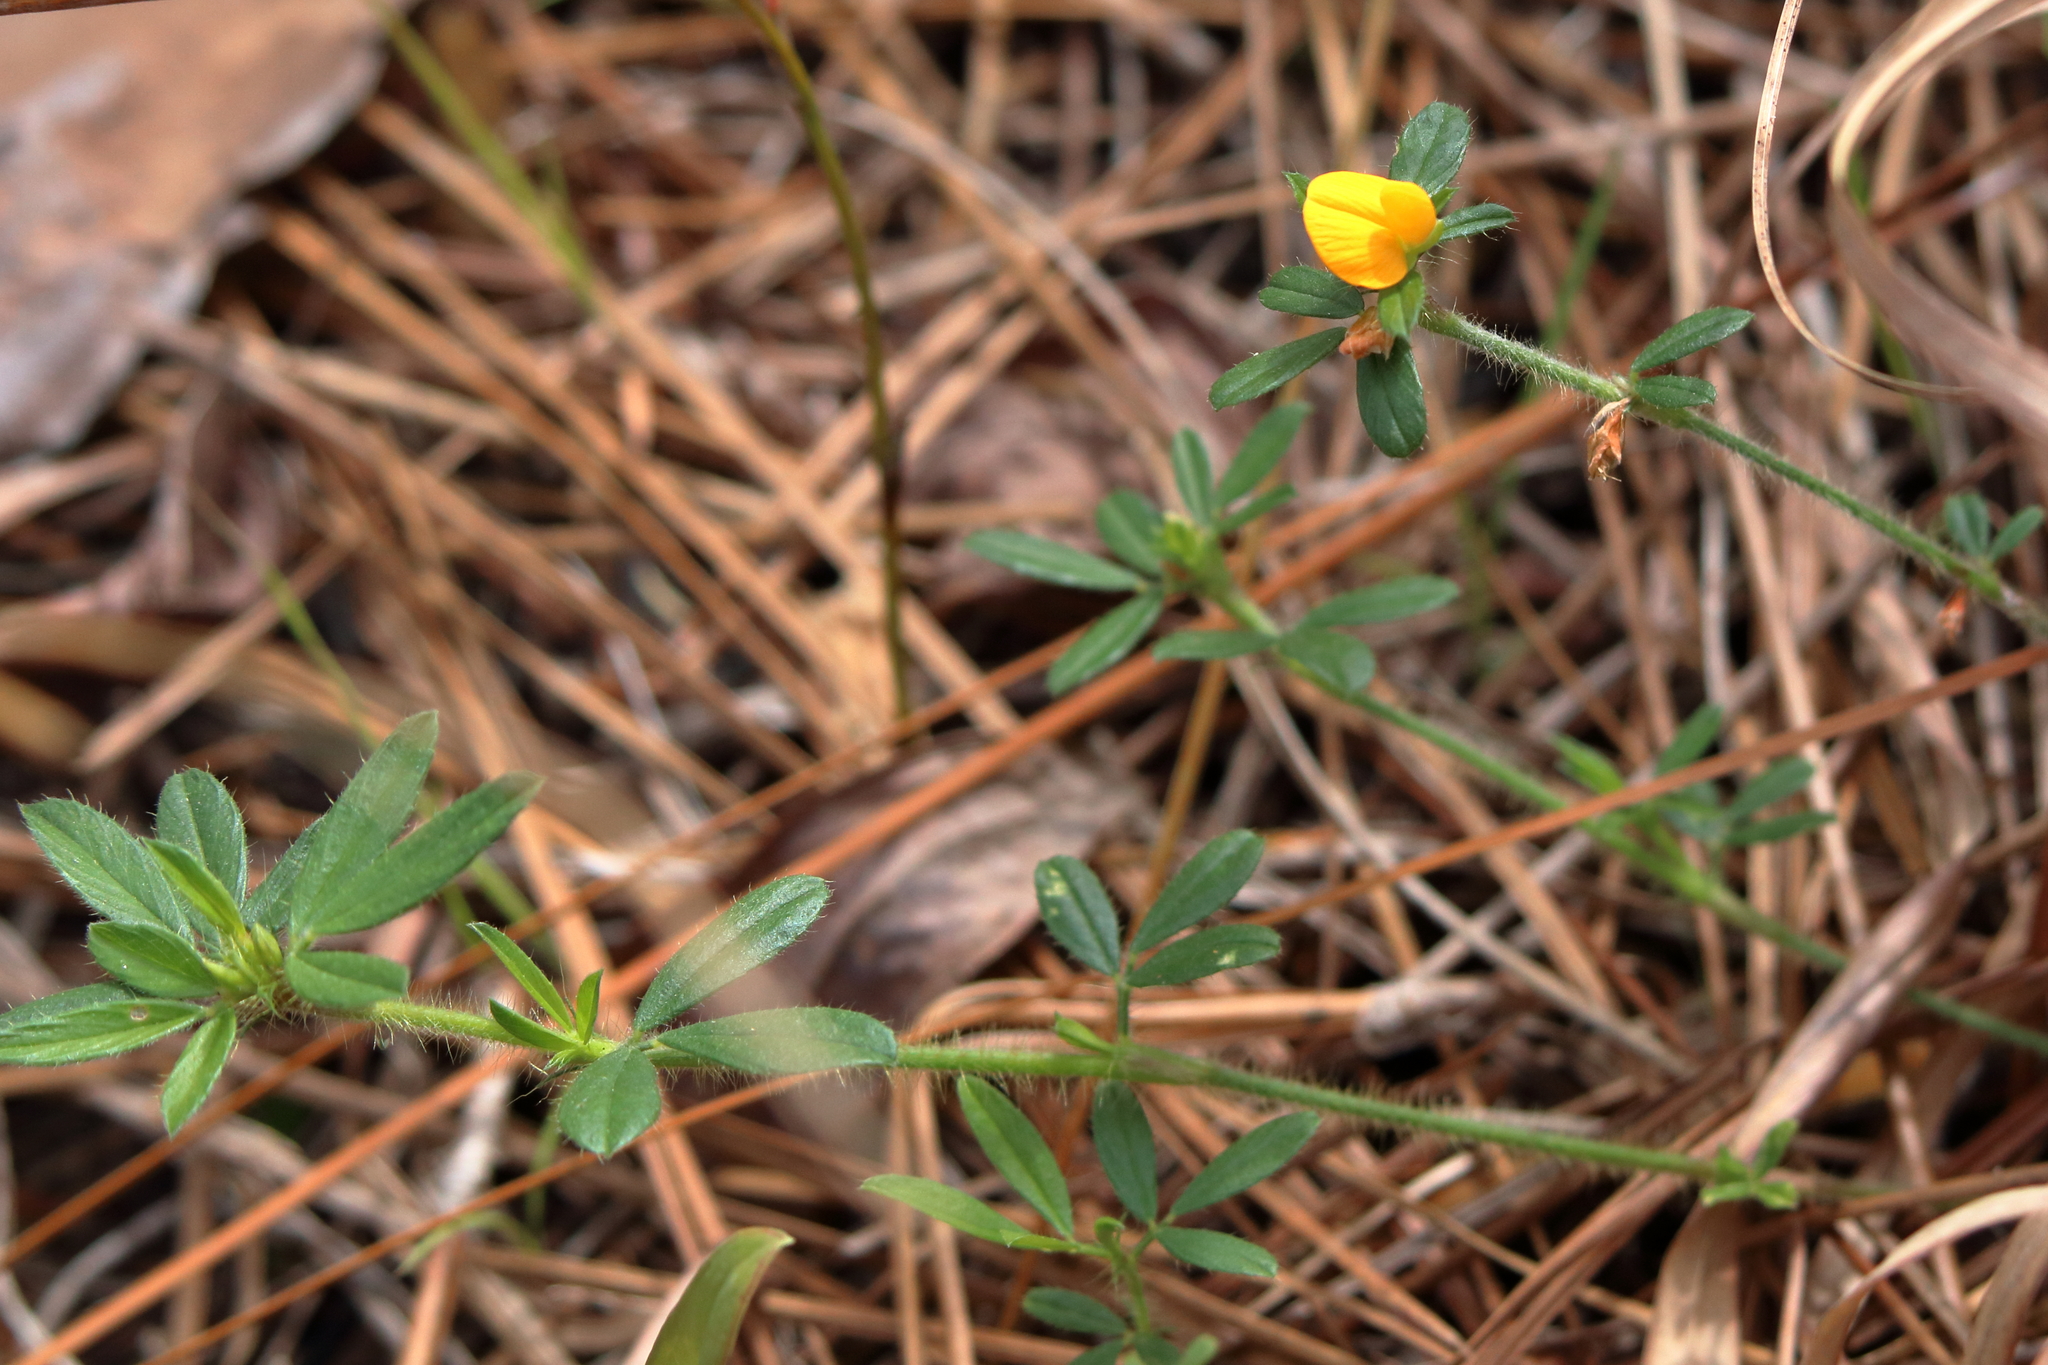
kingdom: Plantae
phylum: Tracheophyta
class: Magnoliopsida
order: Fabales
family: Fabaceae
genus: Stylosanthes
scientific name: Stylosanthes biflora
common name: Two-flower pencil-flower
